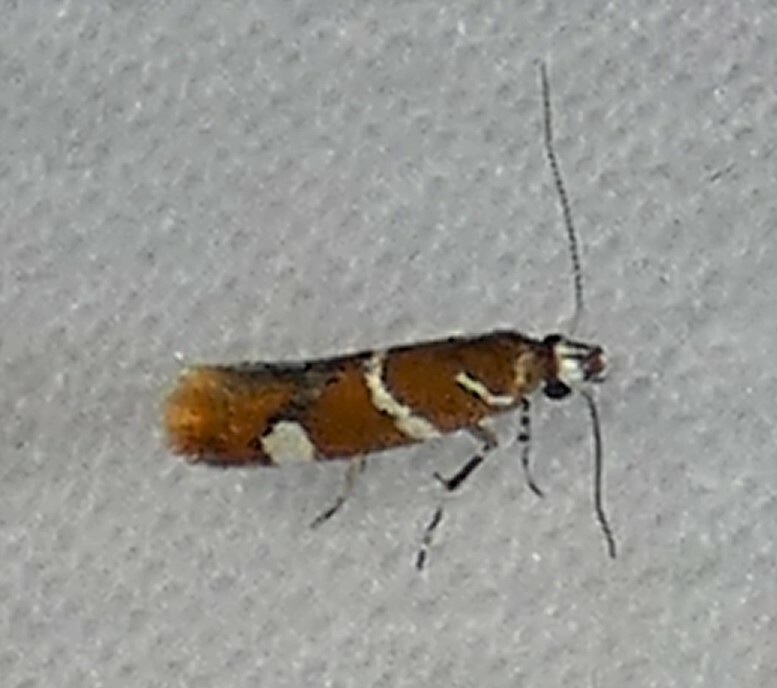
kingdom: Animalia
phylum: Arthropoda
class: Insecta
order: Lepidoptera
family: Oecophoridae
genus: Promalactis
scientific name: Promalactis suzukiella
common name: Moth
